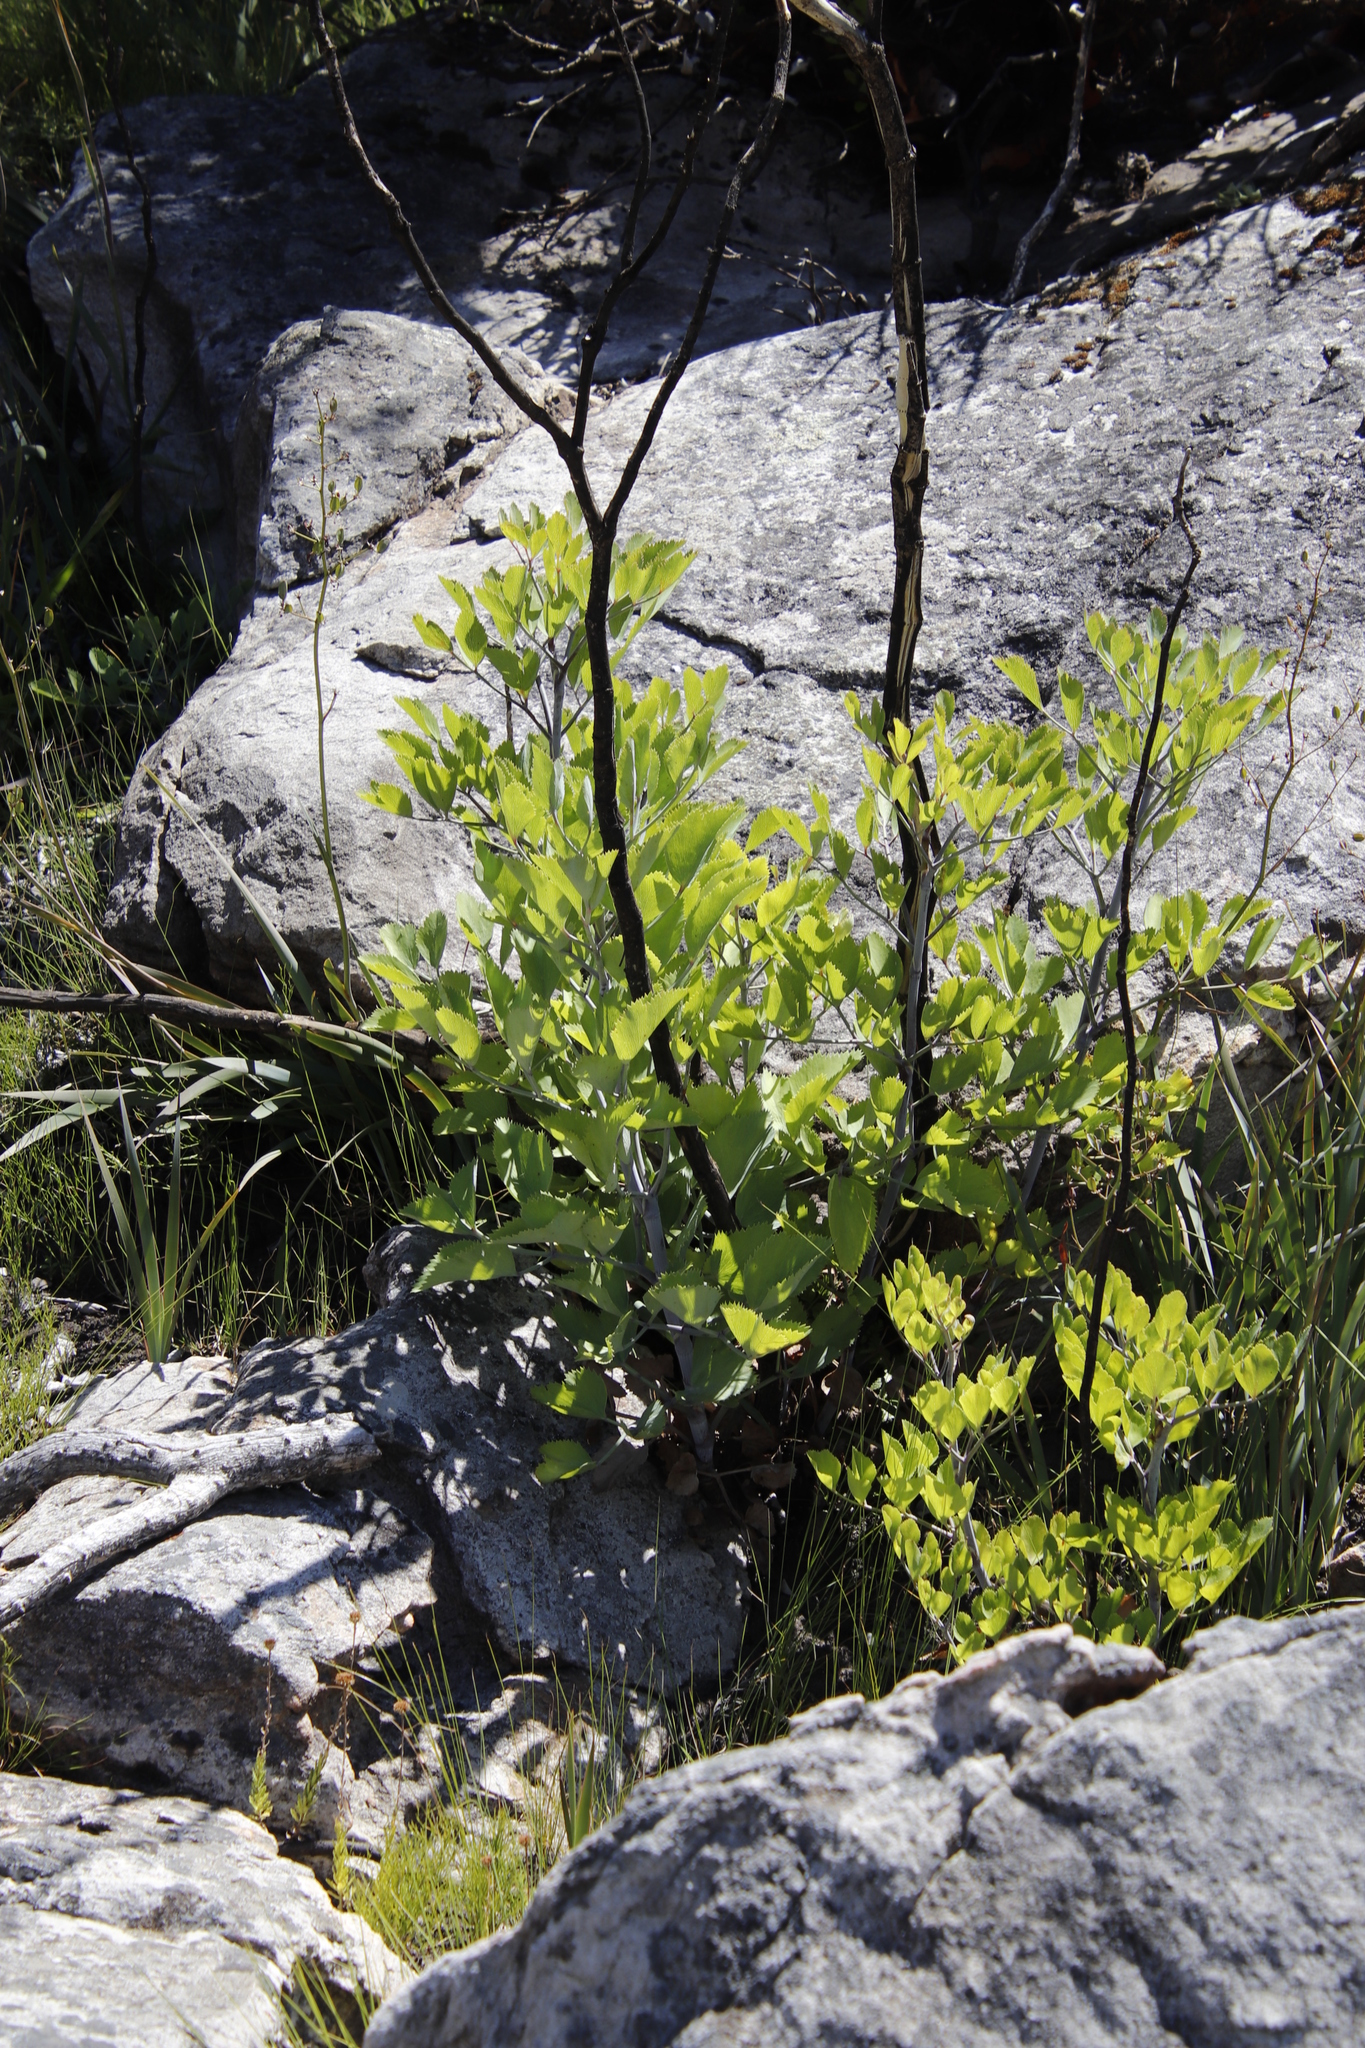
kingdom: Plantae
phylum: Tracheophyta
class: Magnoliopsida
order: Apiales
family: Apiaceae
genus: Notobubon
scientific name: Notobubon galbanum
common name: Blisterbush
